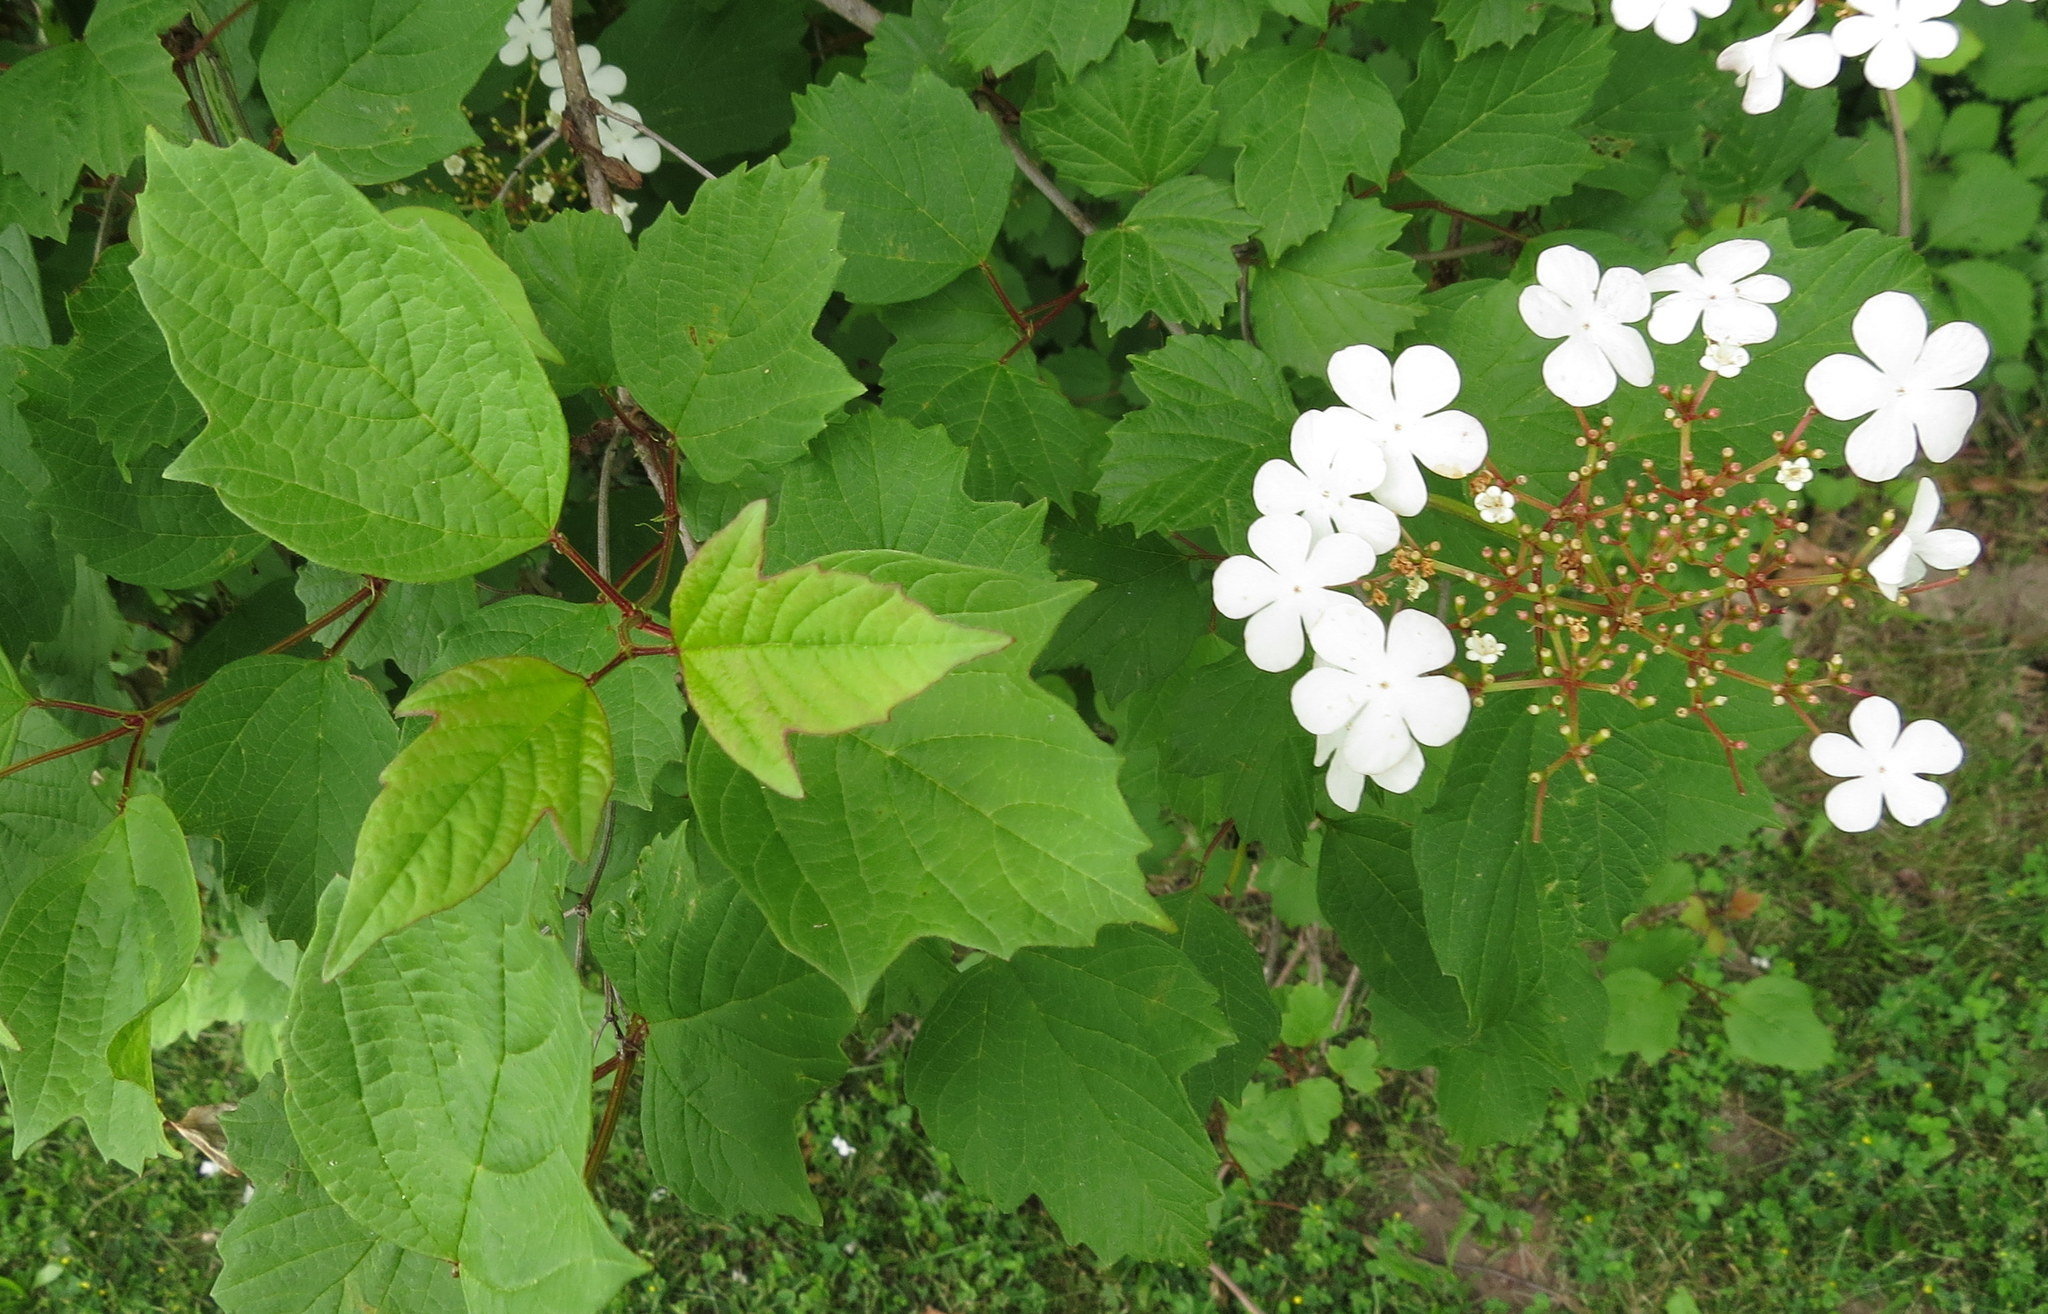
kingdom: Plantae
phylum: Tracheophyta
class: Magnoliopsida
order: Dipsacales
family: Viburnaceae
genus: Viburnum
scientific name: Viburnum opulus
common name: Guelder-rose
